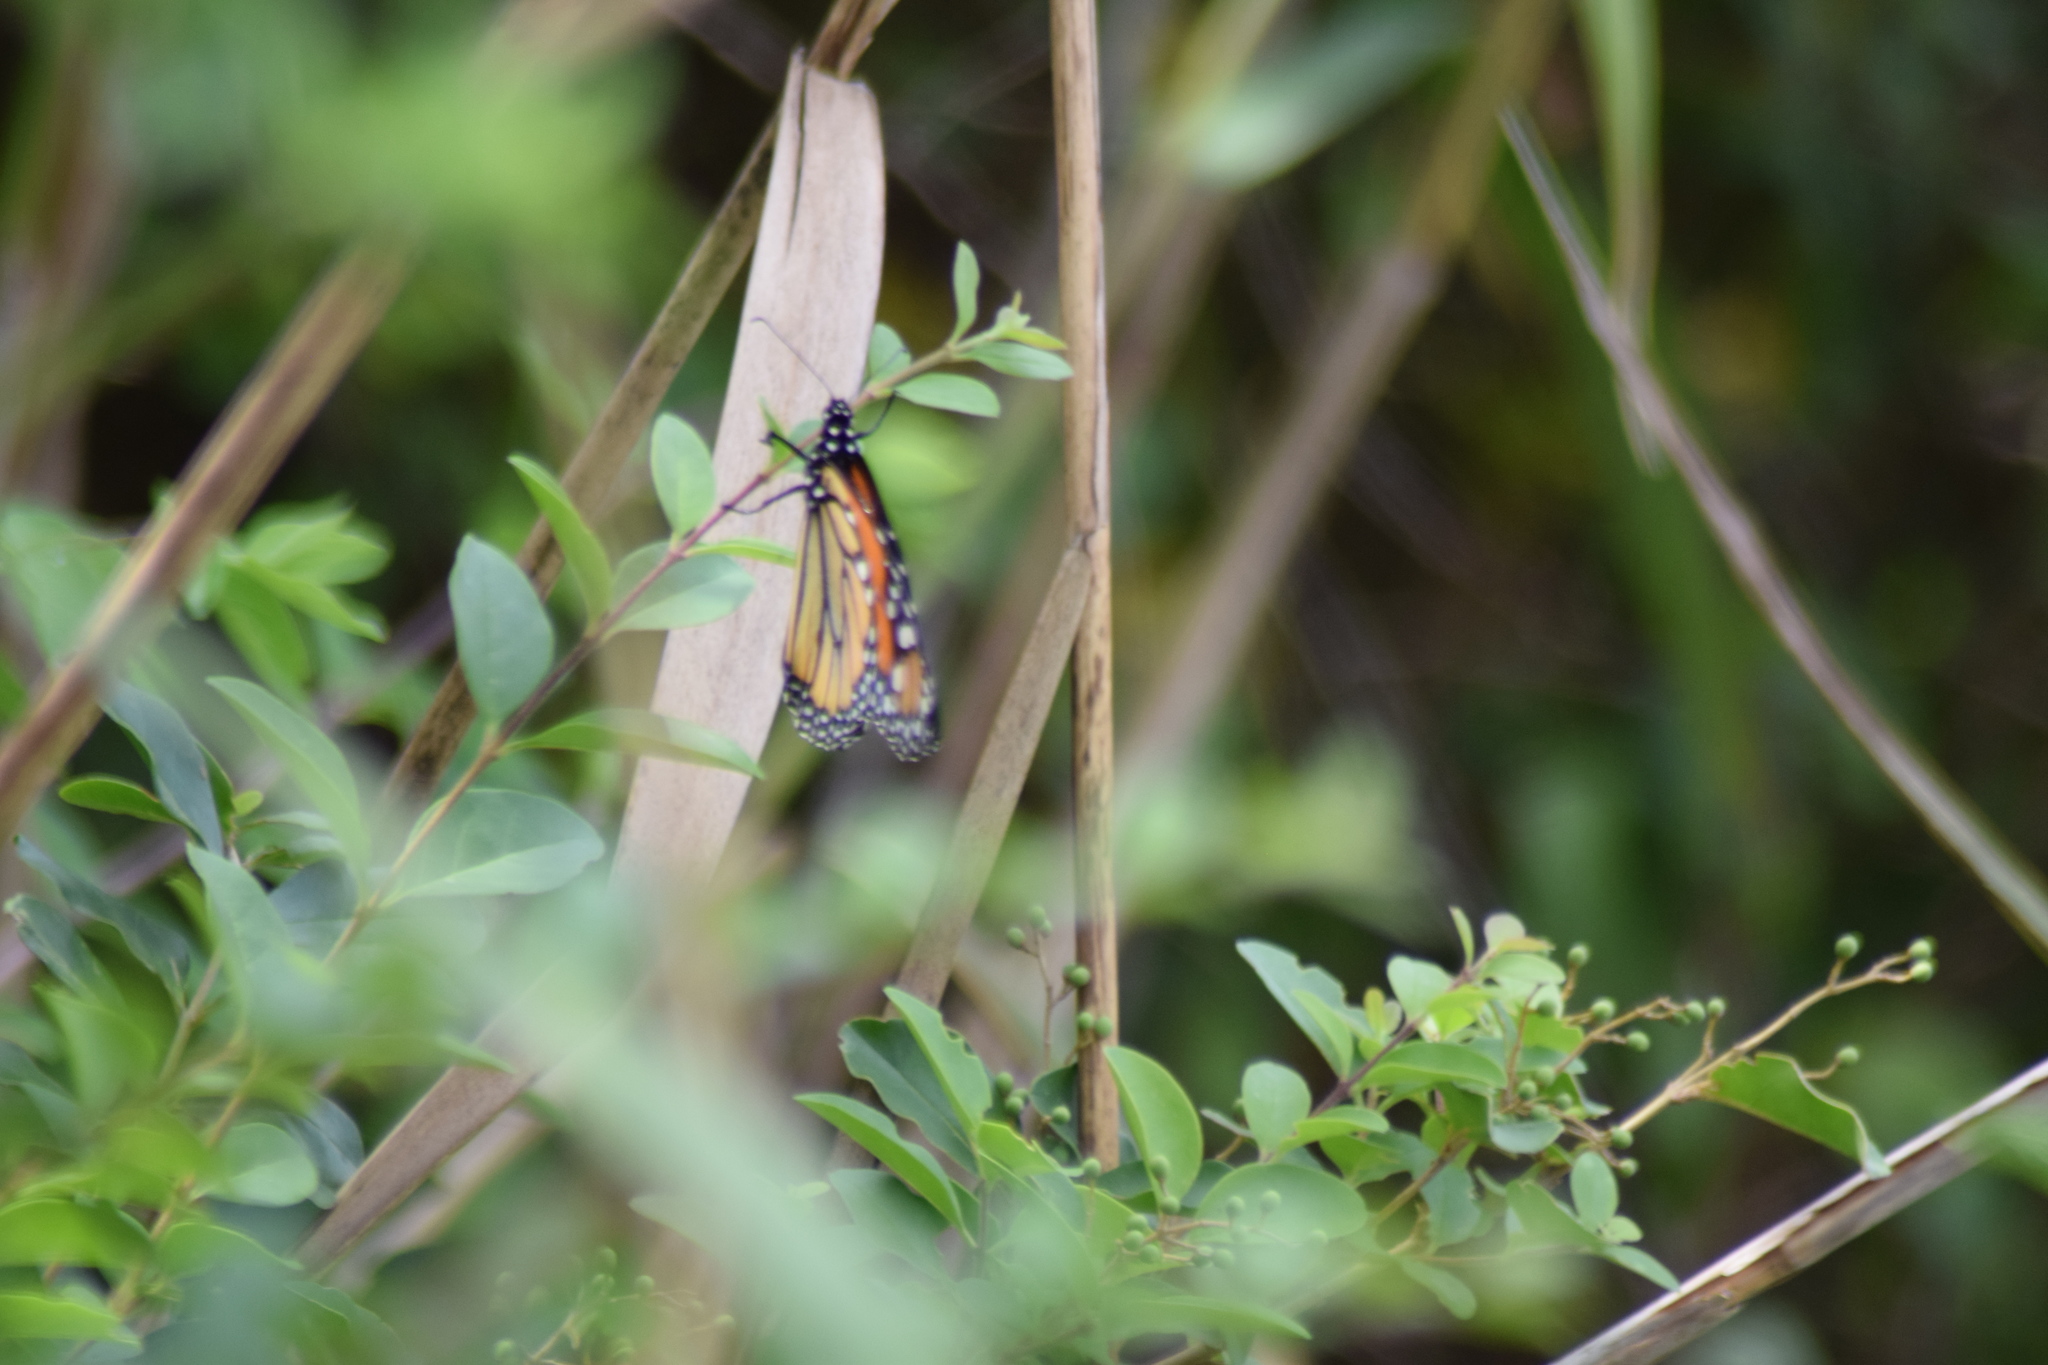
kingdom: Animalia
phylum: Arthropoda
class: Insecta
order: Lepidoptera
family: Nymphalidae
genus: Danaus
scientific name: Danaus plexippus
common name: Monarch
